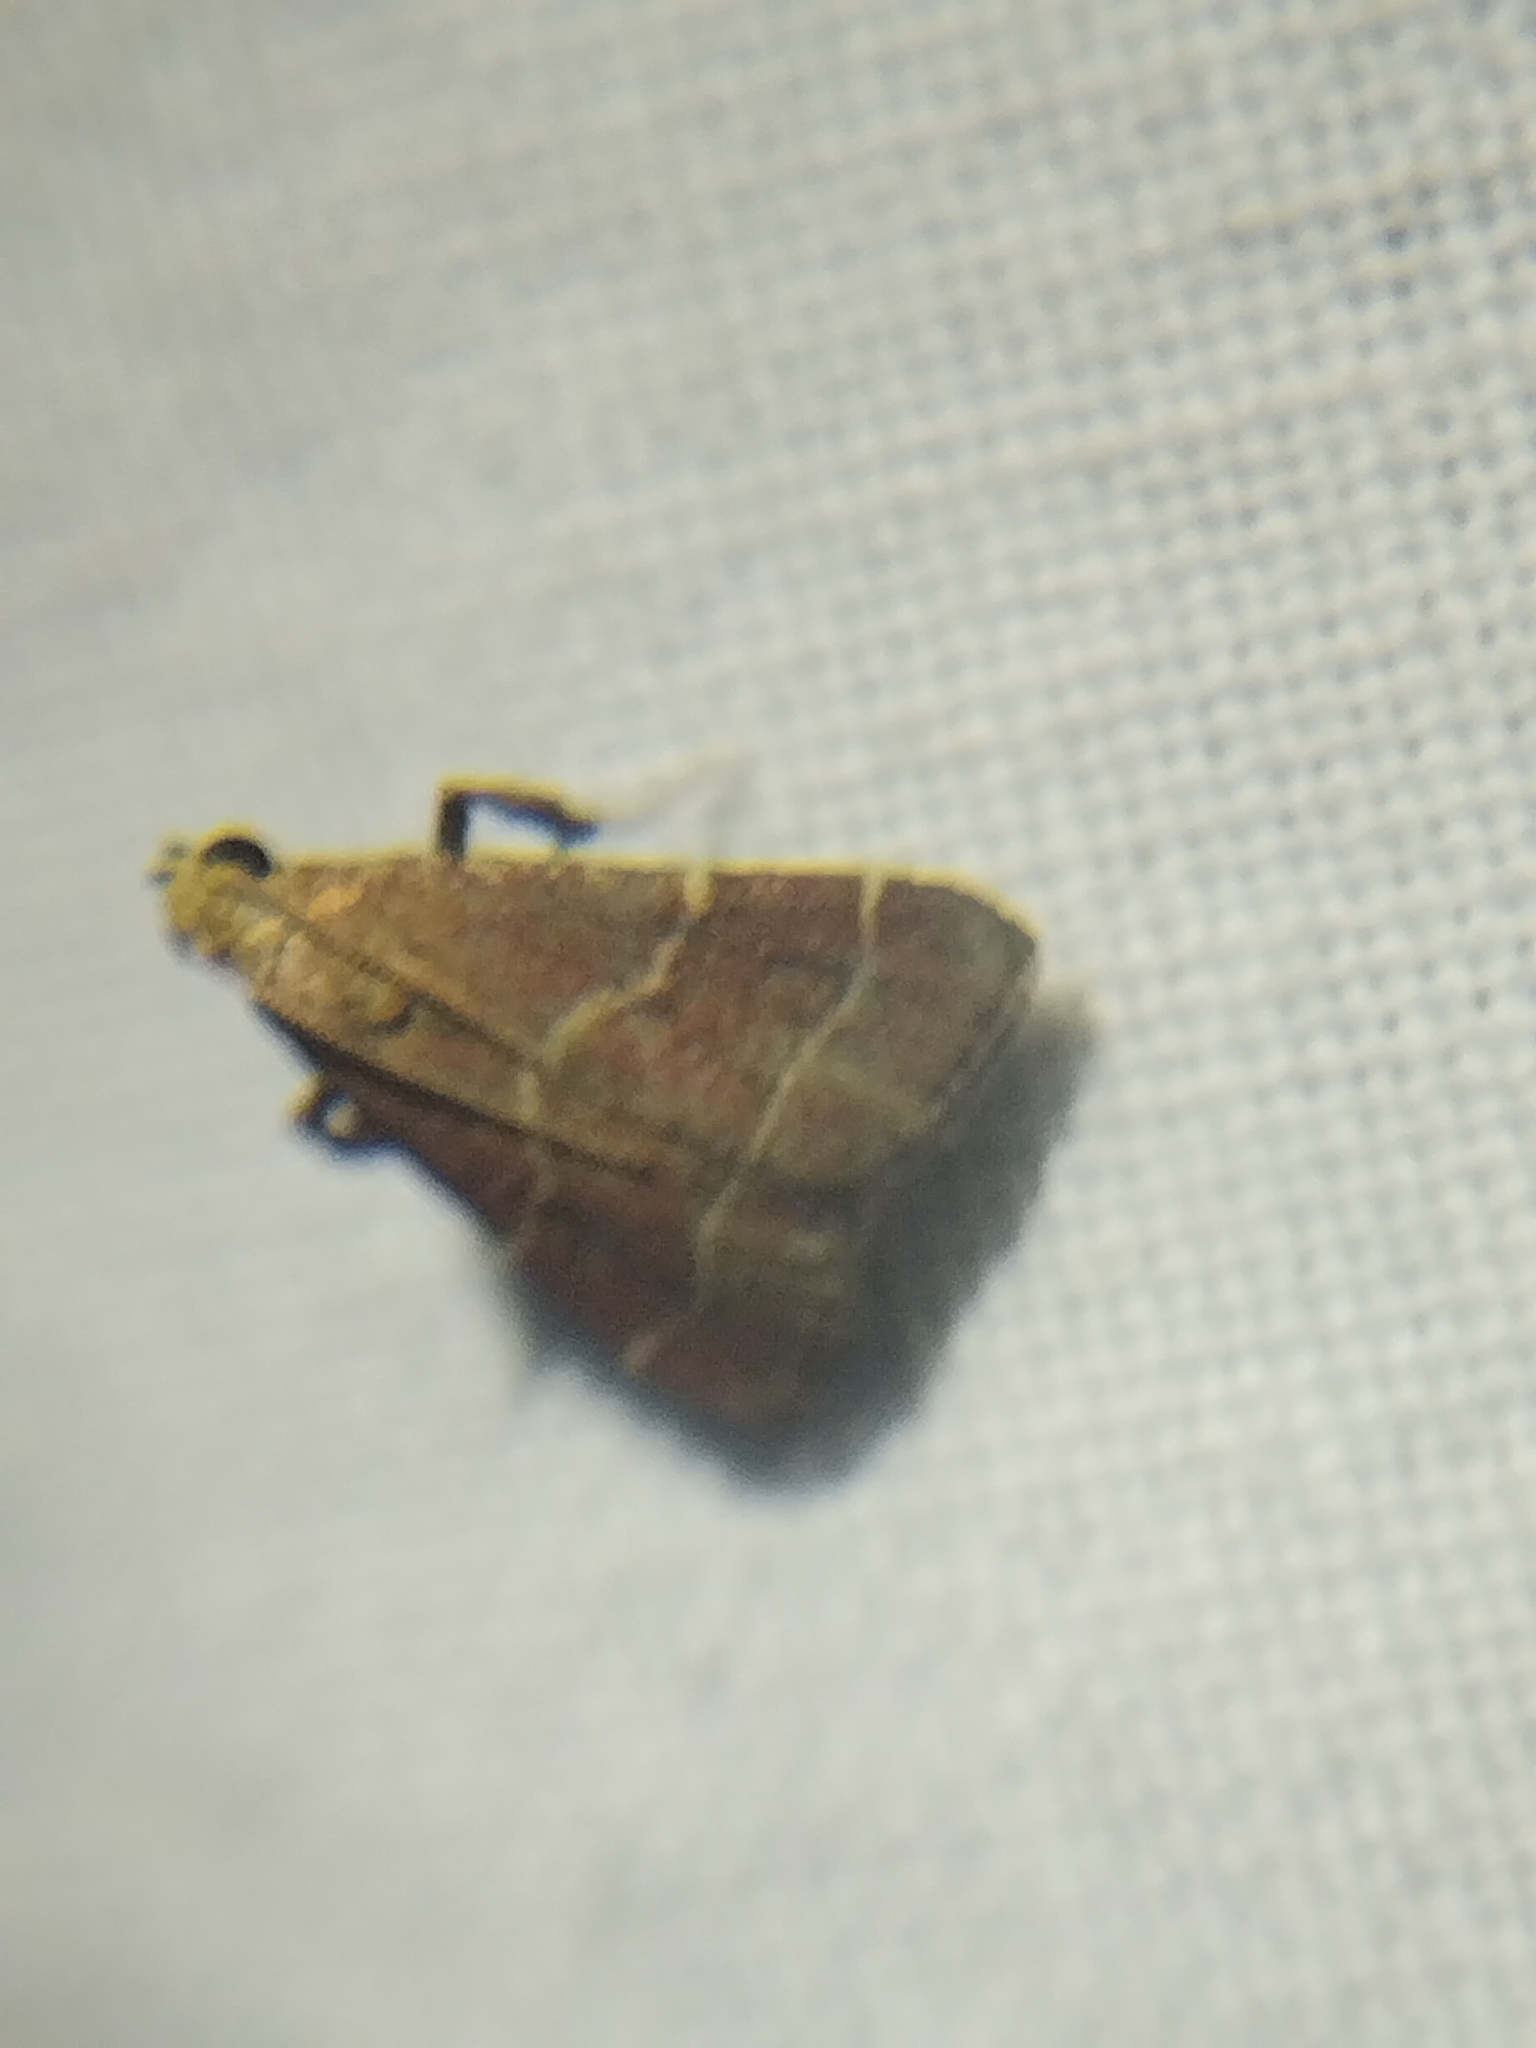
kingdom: Animalia
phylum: Arthropoda
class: Insecta
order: Lepidoptera
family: Pyralidae
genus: Arta
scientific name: Arta statalis
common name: Posturing arta moth
